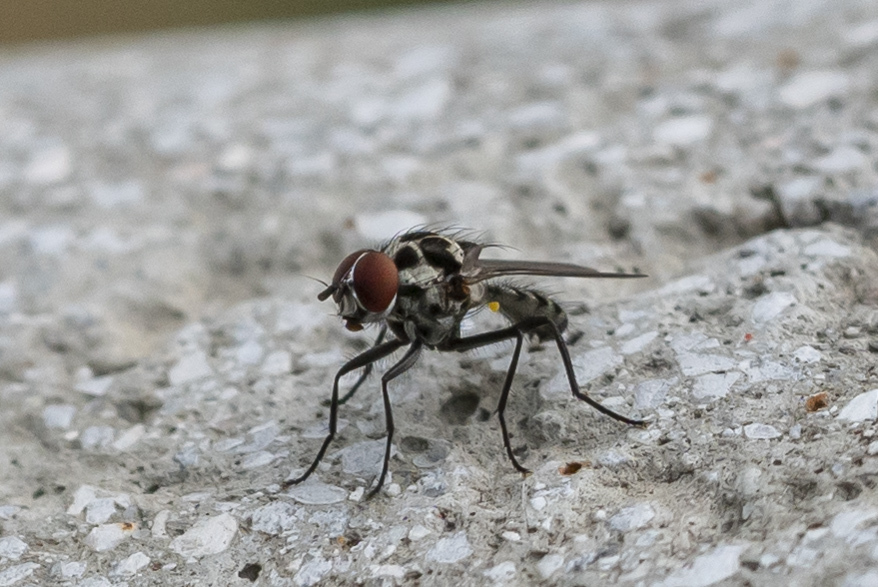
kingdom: Animalia
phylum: Arthropoda
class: Insecta
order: Diptera
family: Anthomyiidae
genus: Anthomyia
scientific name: Anthomyia pluvialis
